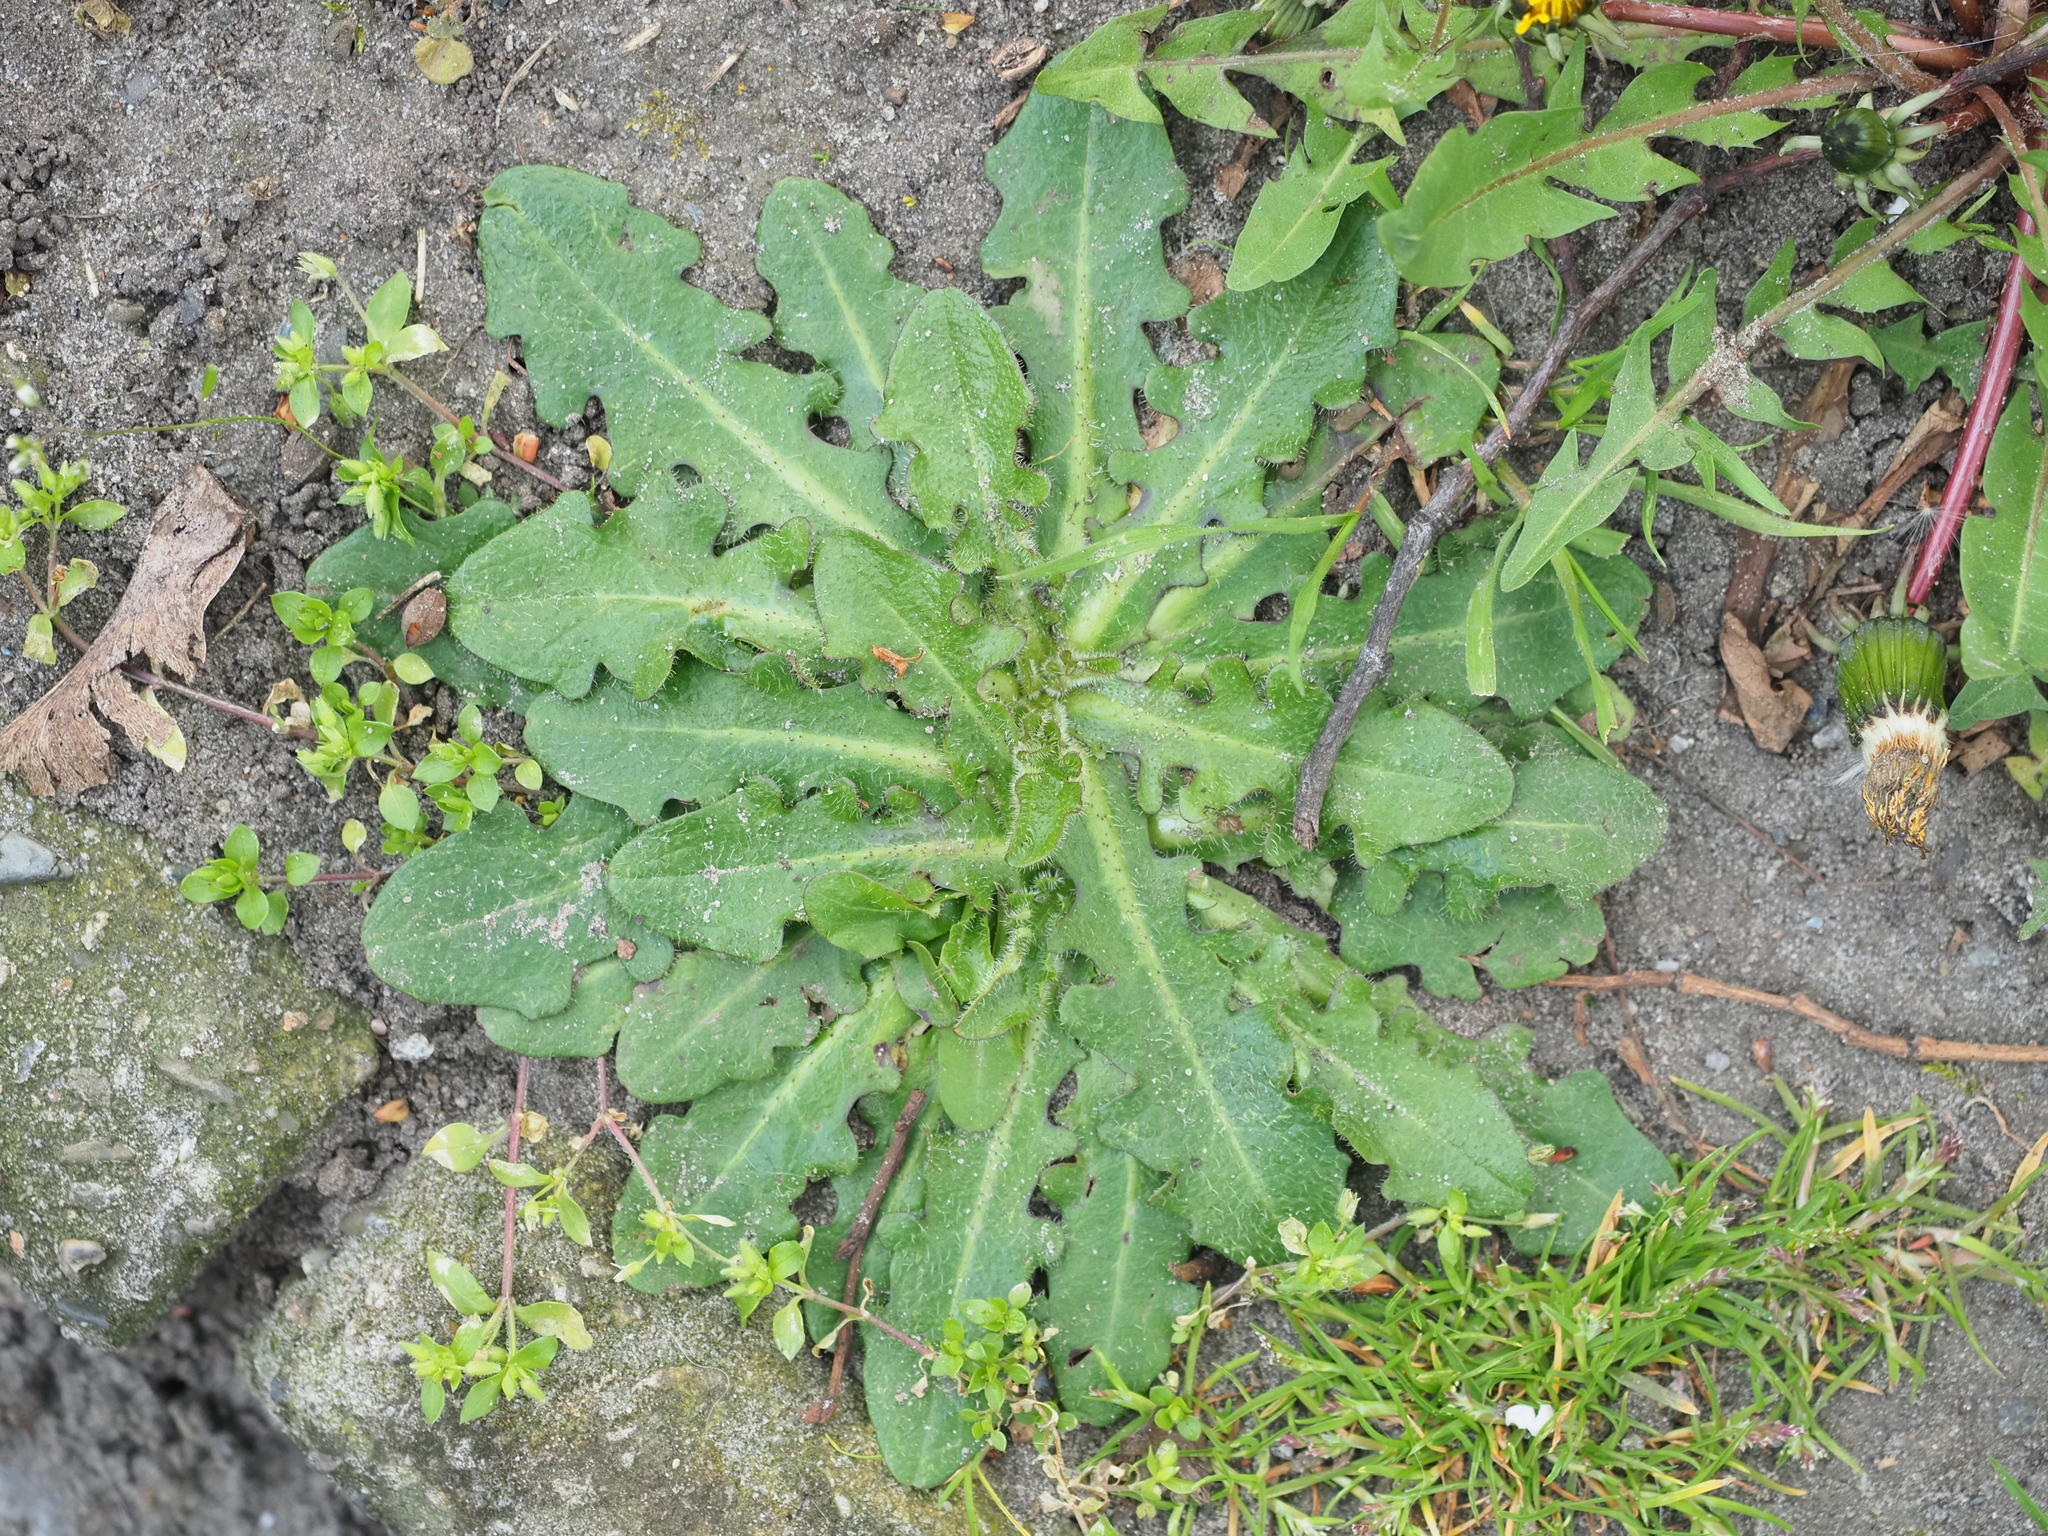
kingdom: Plantae
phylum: Tracheophyta
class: Magnoliopsida
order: Asterales
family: Asteraceae
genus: Hypochaeris
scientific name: Hypochaeris radicata
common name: Flatweed
